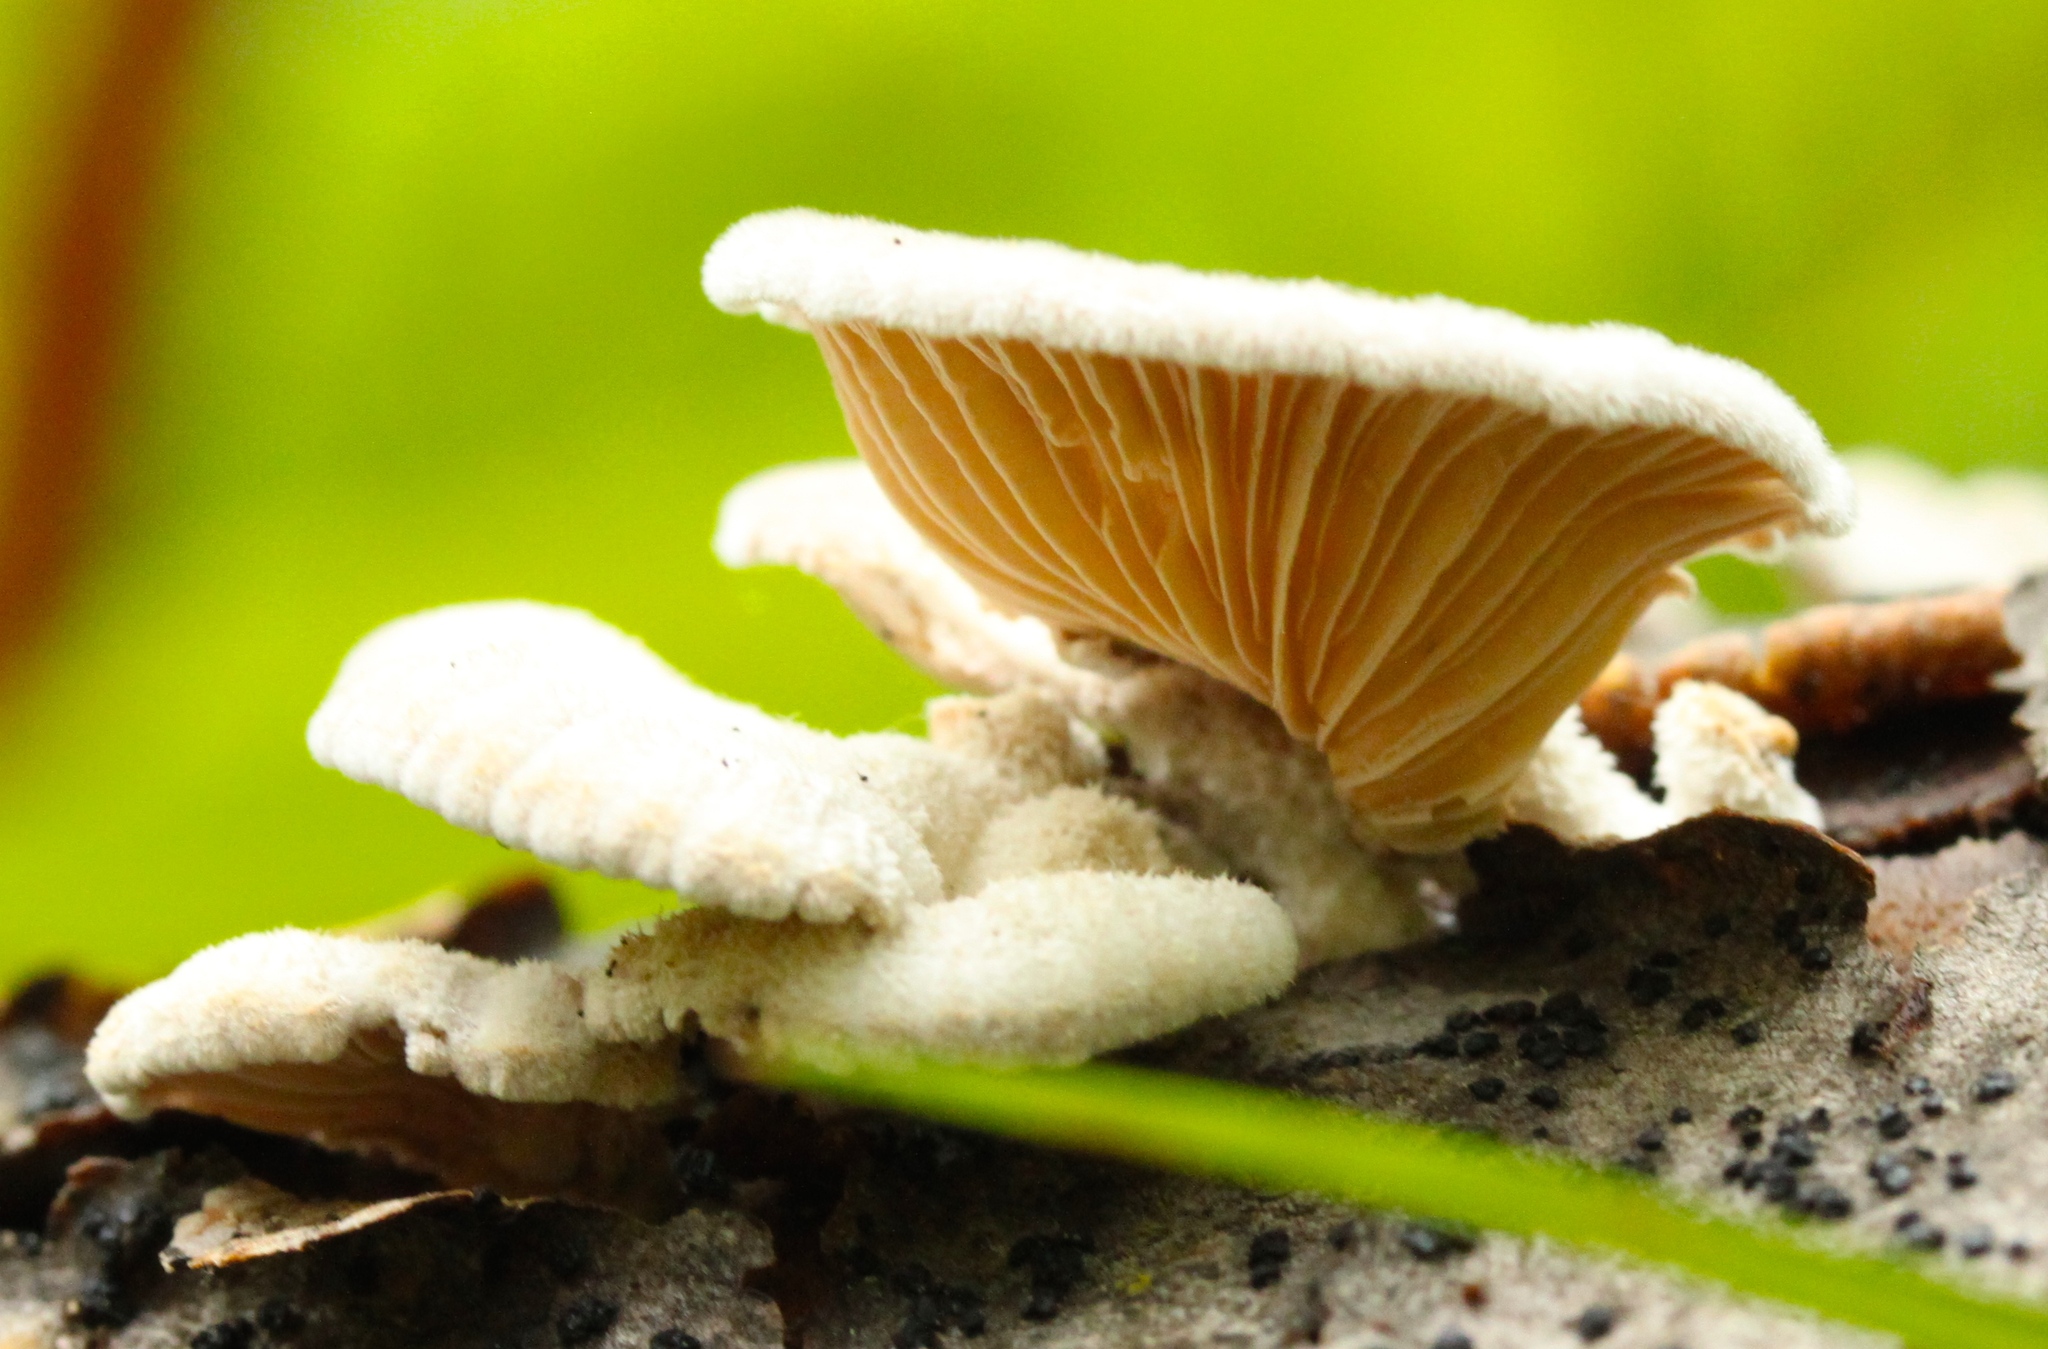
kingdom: Fungi
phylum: Basidiomycota
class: Agaricomycetes
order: Agaricales
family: Schizophyllaceae
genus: Schizophyllum
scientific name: Schizophyllum commune
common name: Common porecrust
